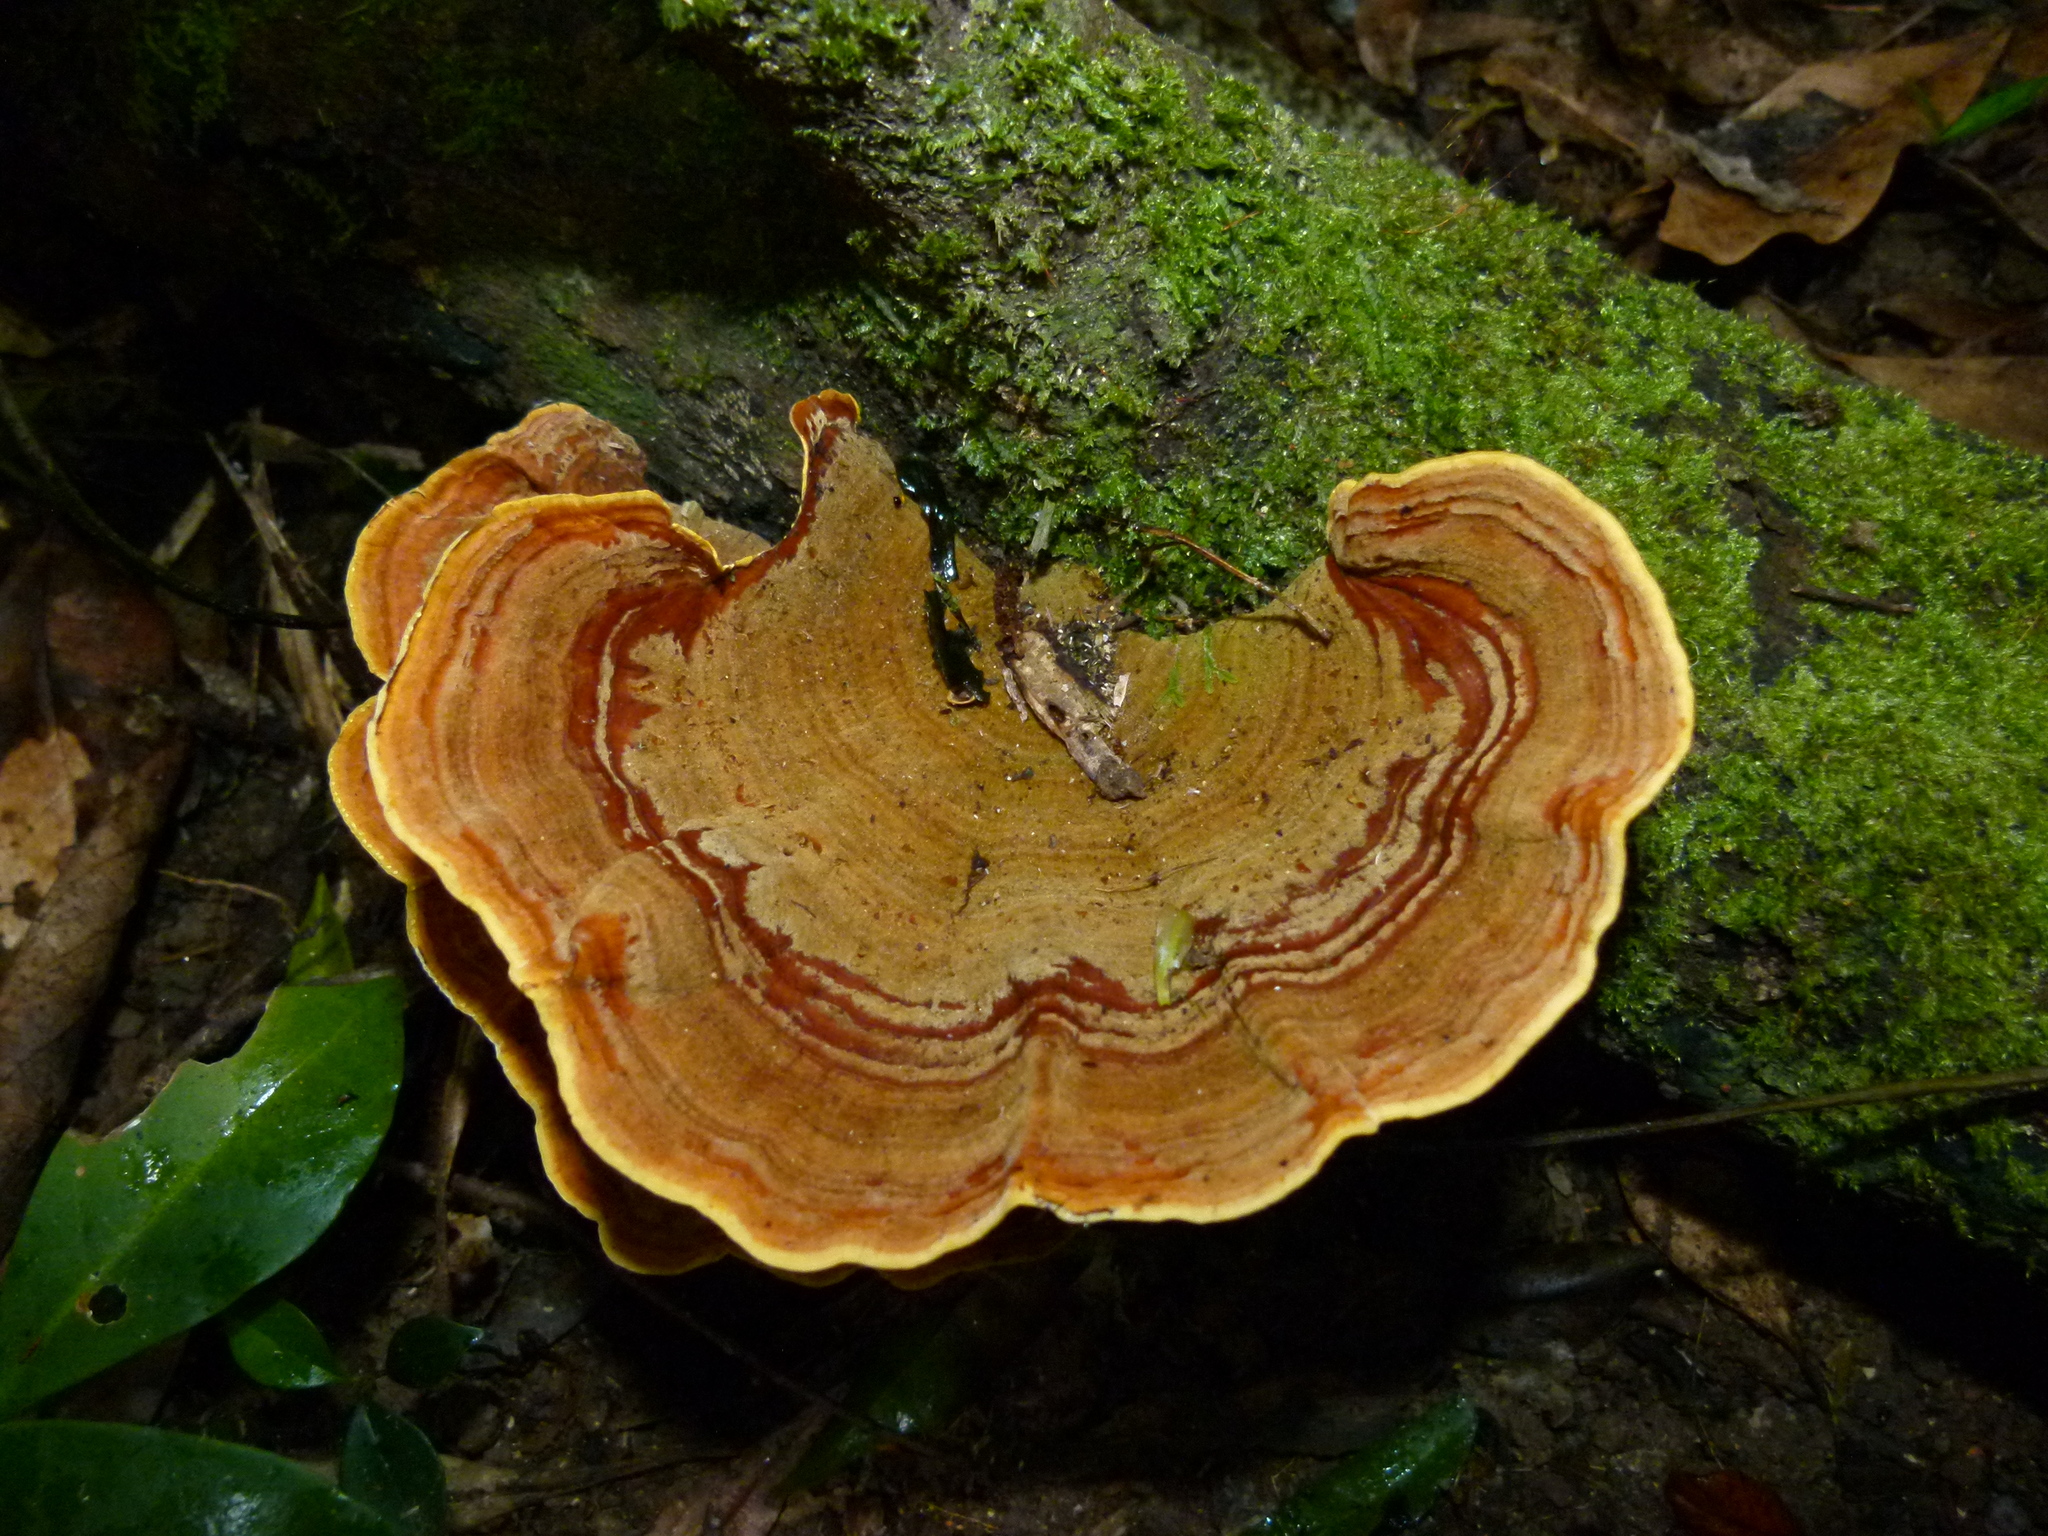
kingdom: Fungi
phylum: Basidiomycota
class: Agaricomycetes
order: Russulales
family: Stereaceae
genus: Stereum
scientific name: Stereum versicolor
